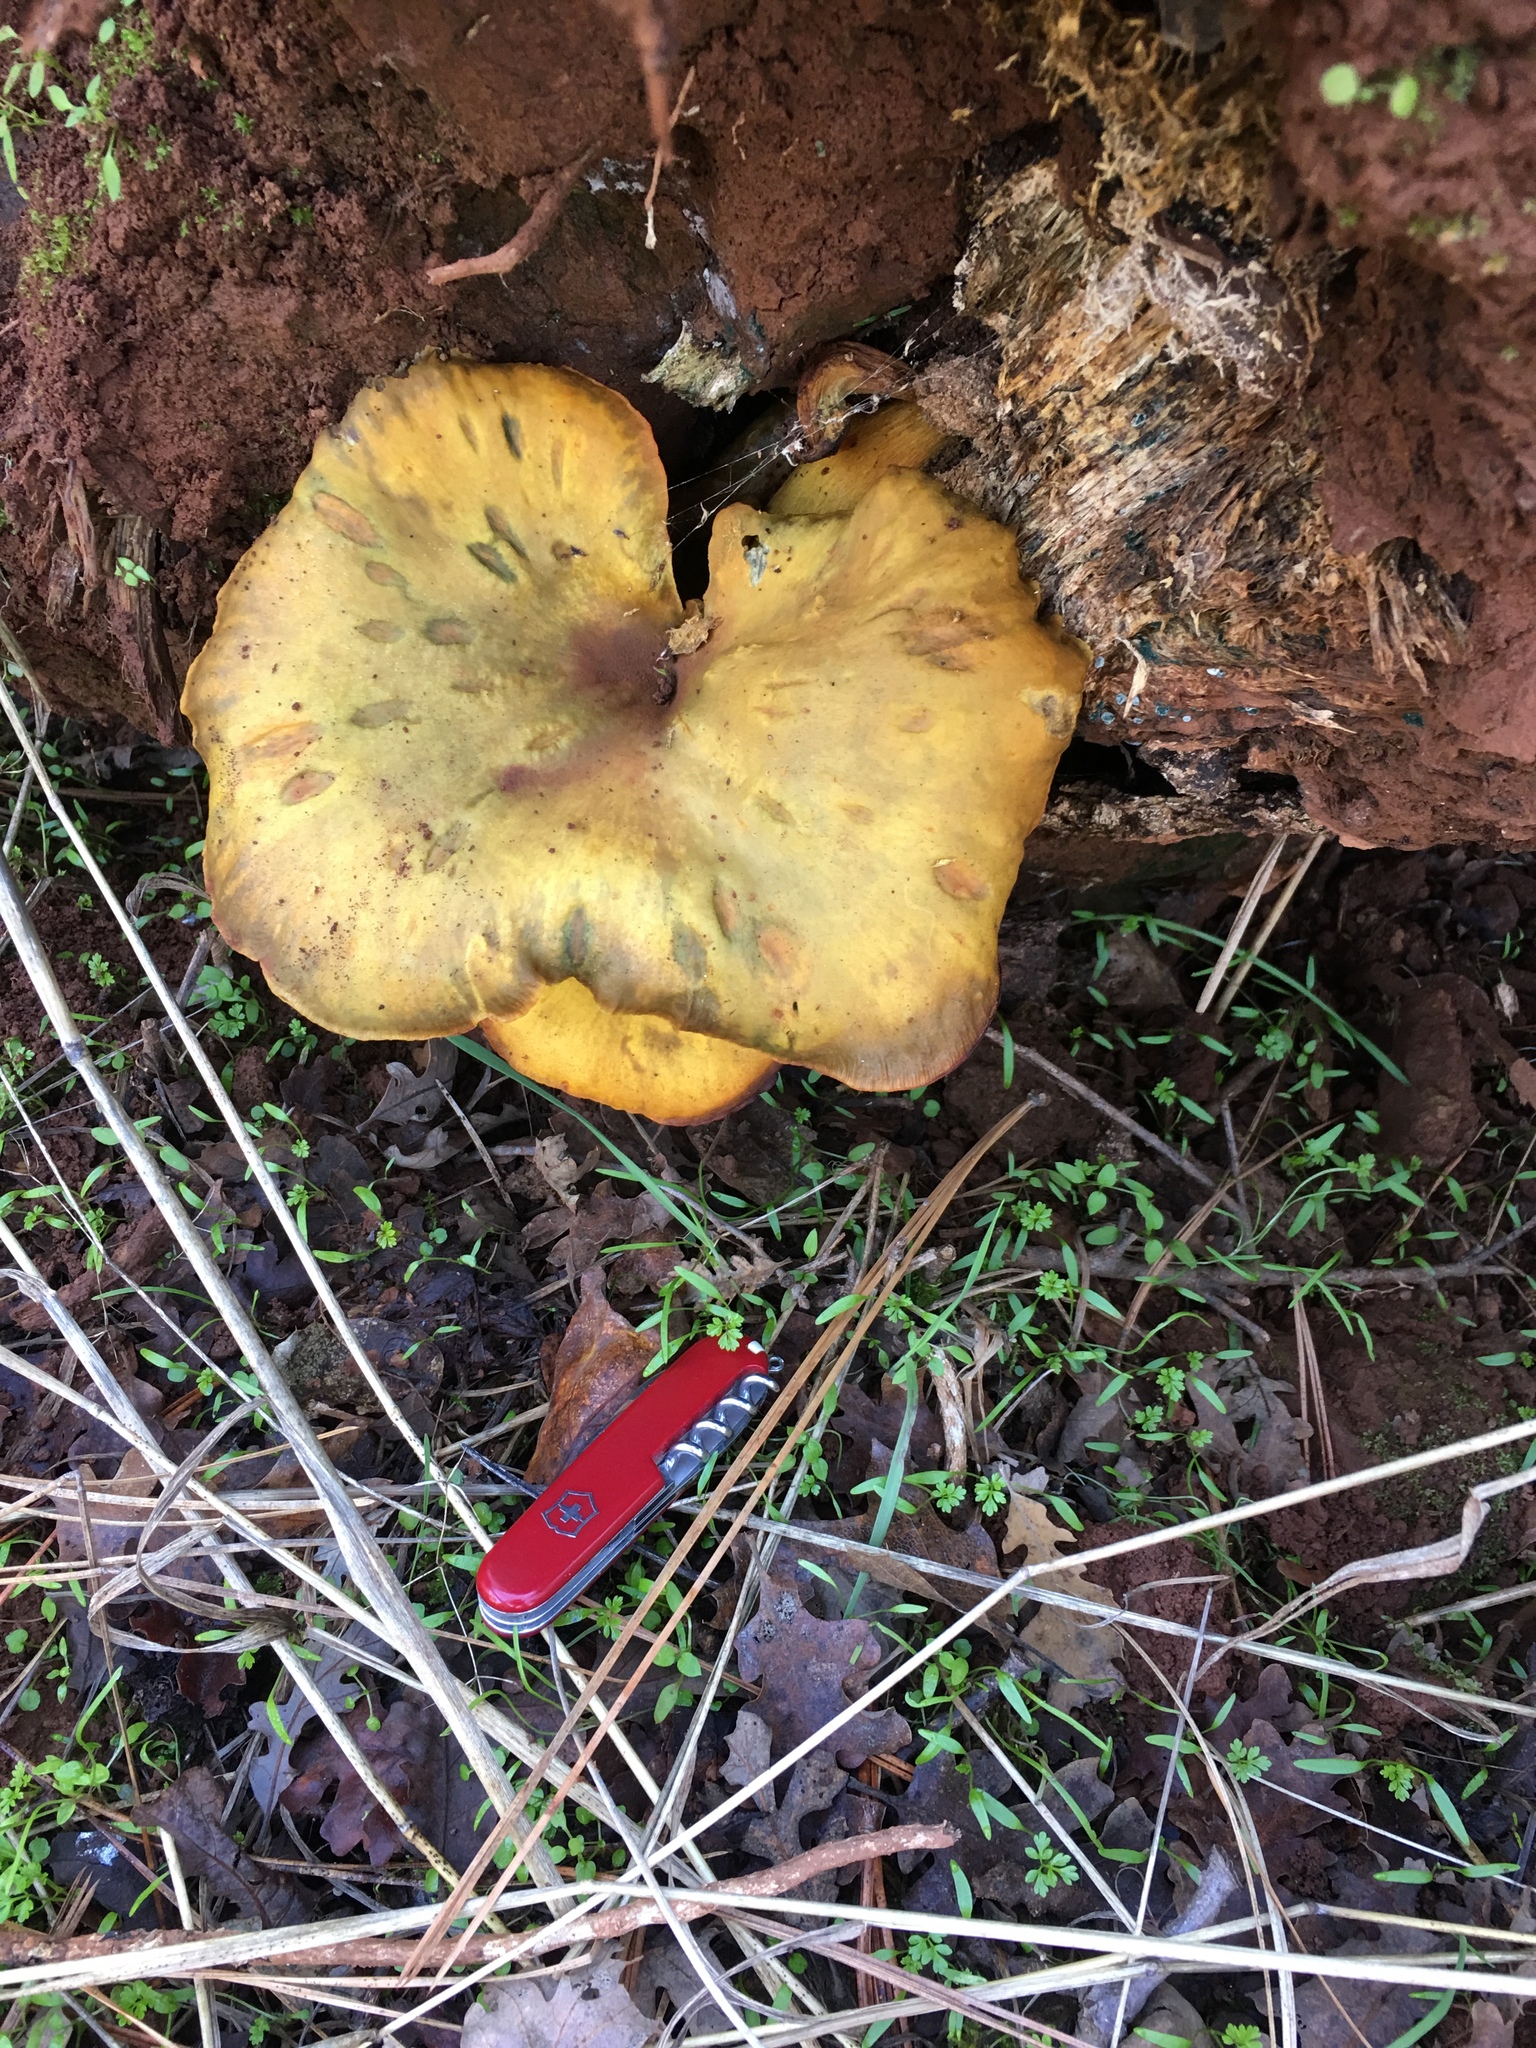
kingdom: Fungi
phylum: Basidiomycota
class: Agaricomycetes
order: Agaricales
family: Omphalotaceae
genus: Omphalotus
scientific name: Omphalotus olivascens
